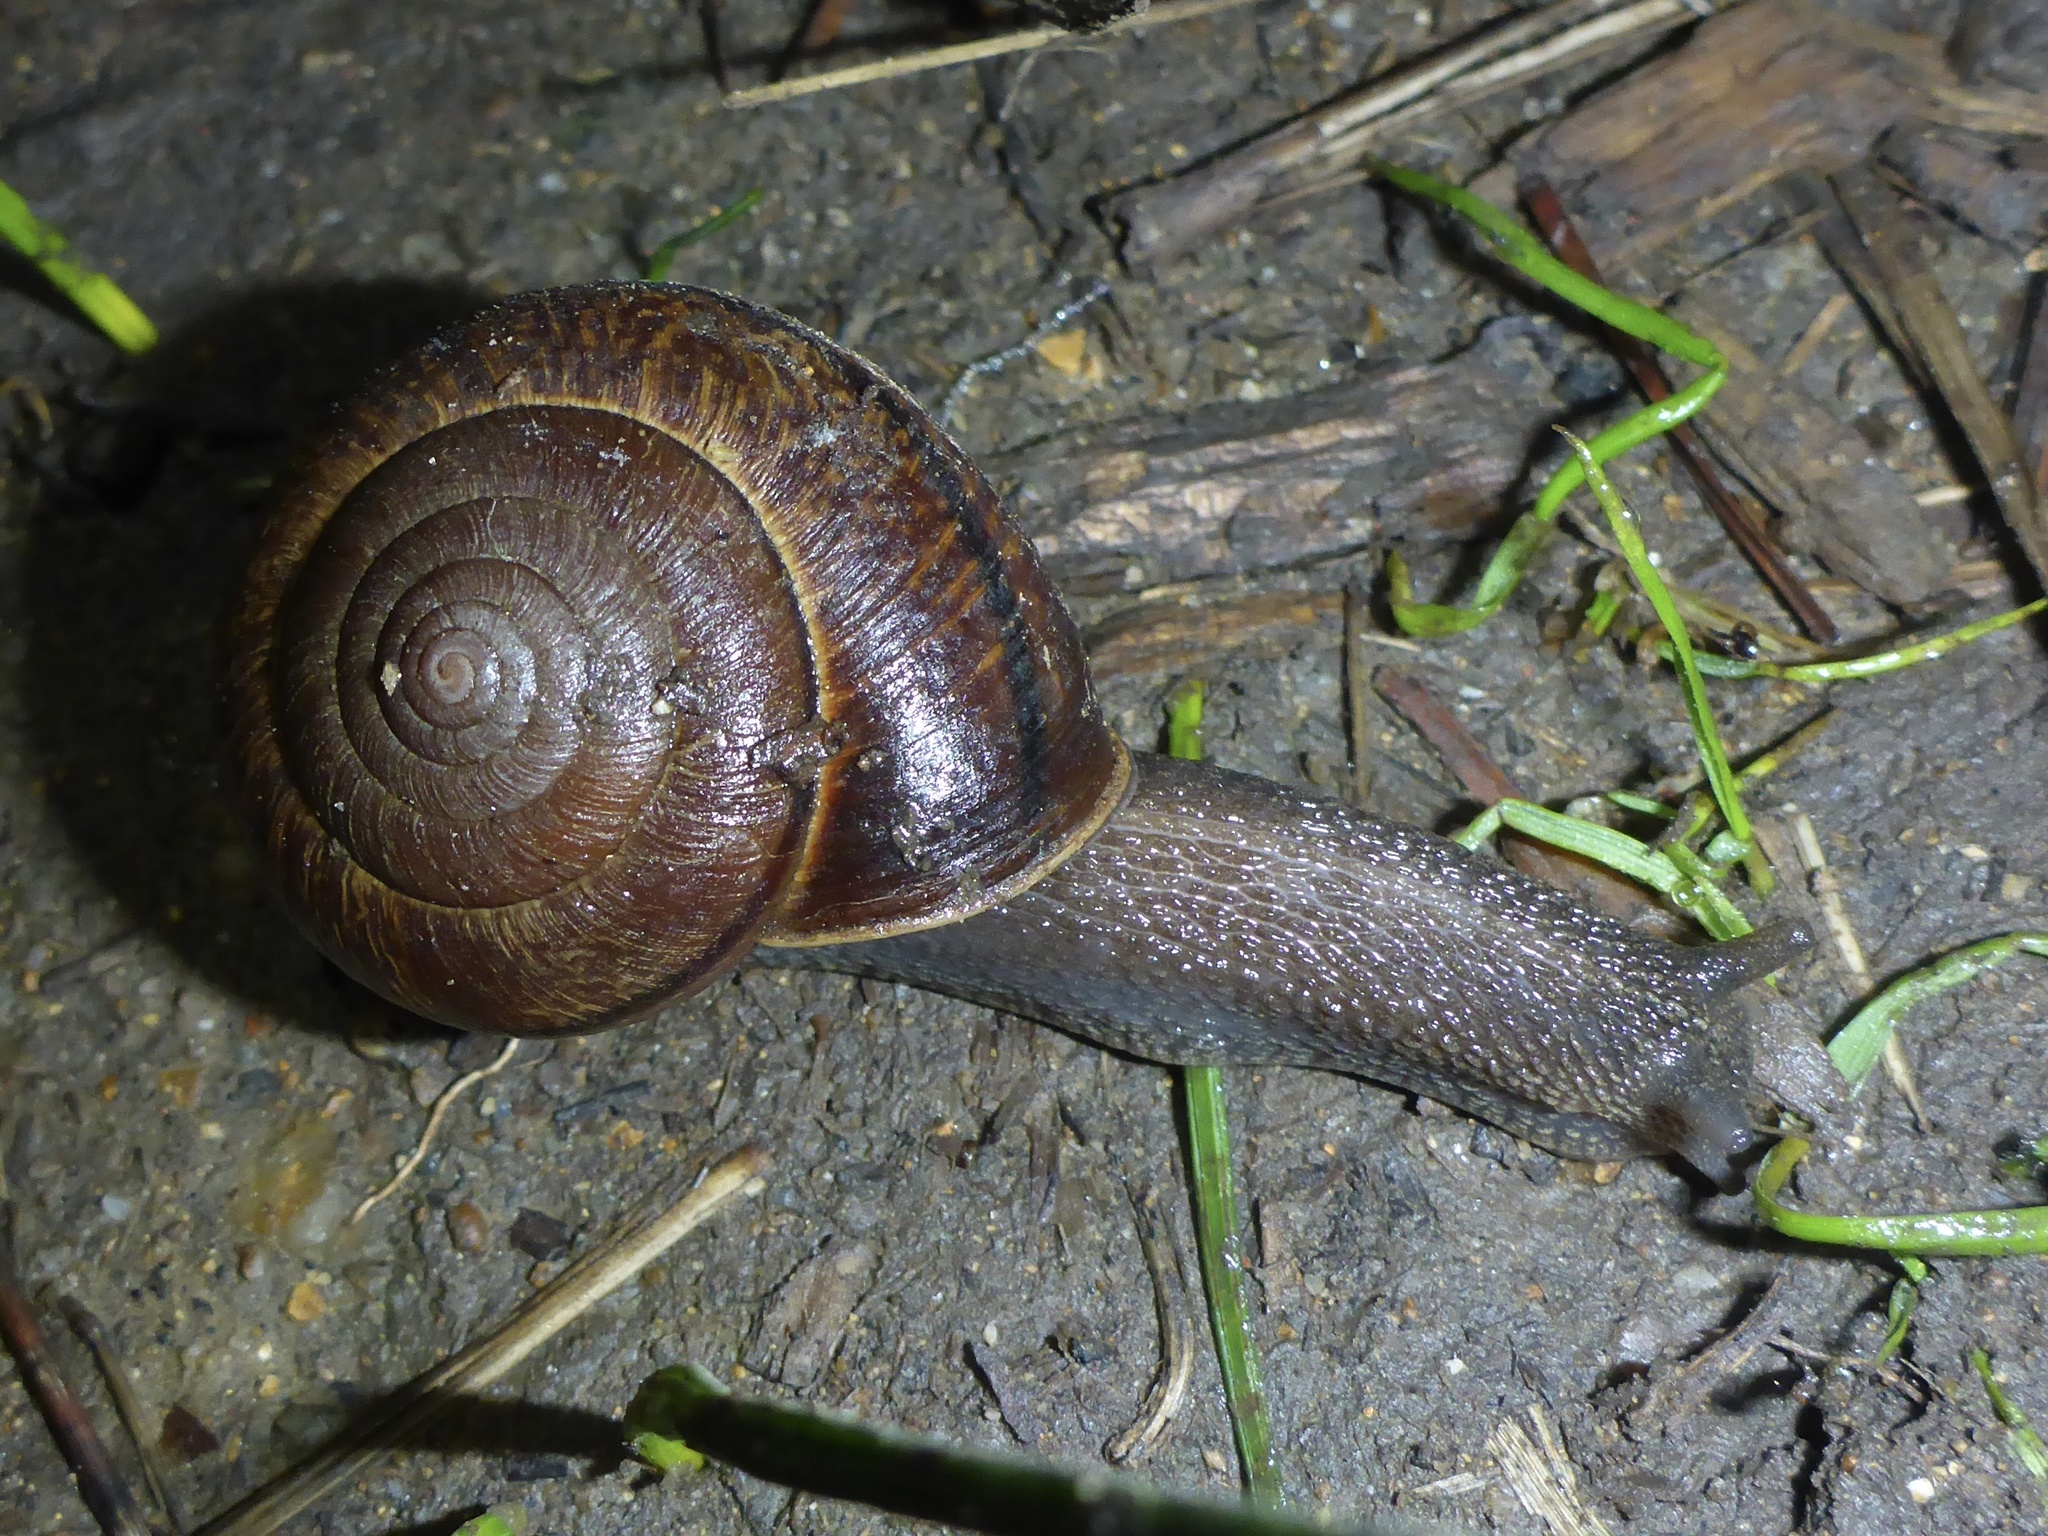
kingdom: Animalia
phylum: Mollusca
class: Gastropoda
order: Stylommatophora
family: Xanthonychidae
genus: Helminthoglypta
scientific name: Helminthoglypta arrosa
